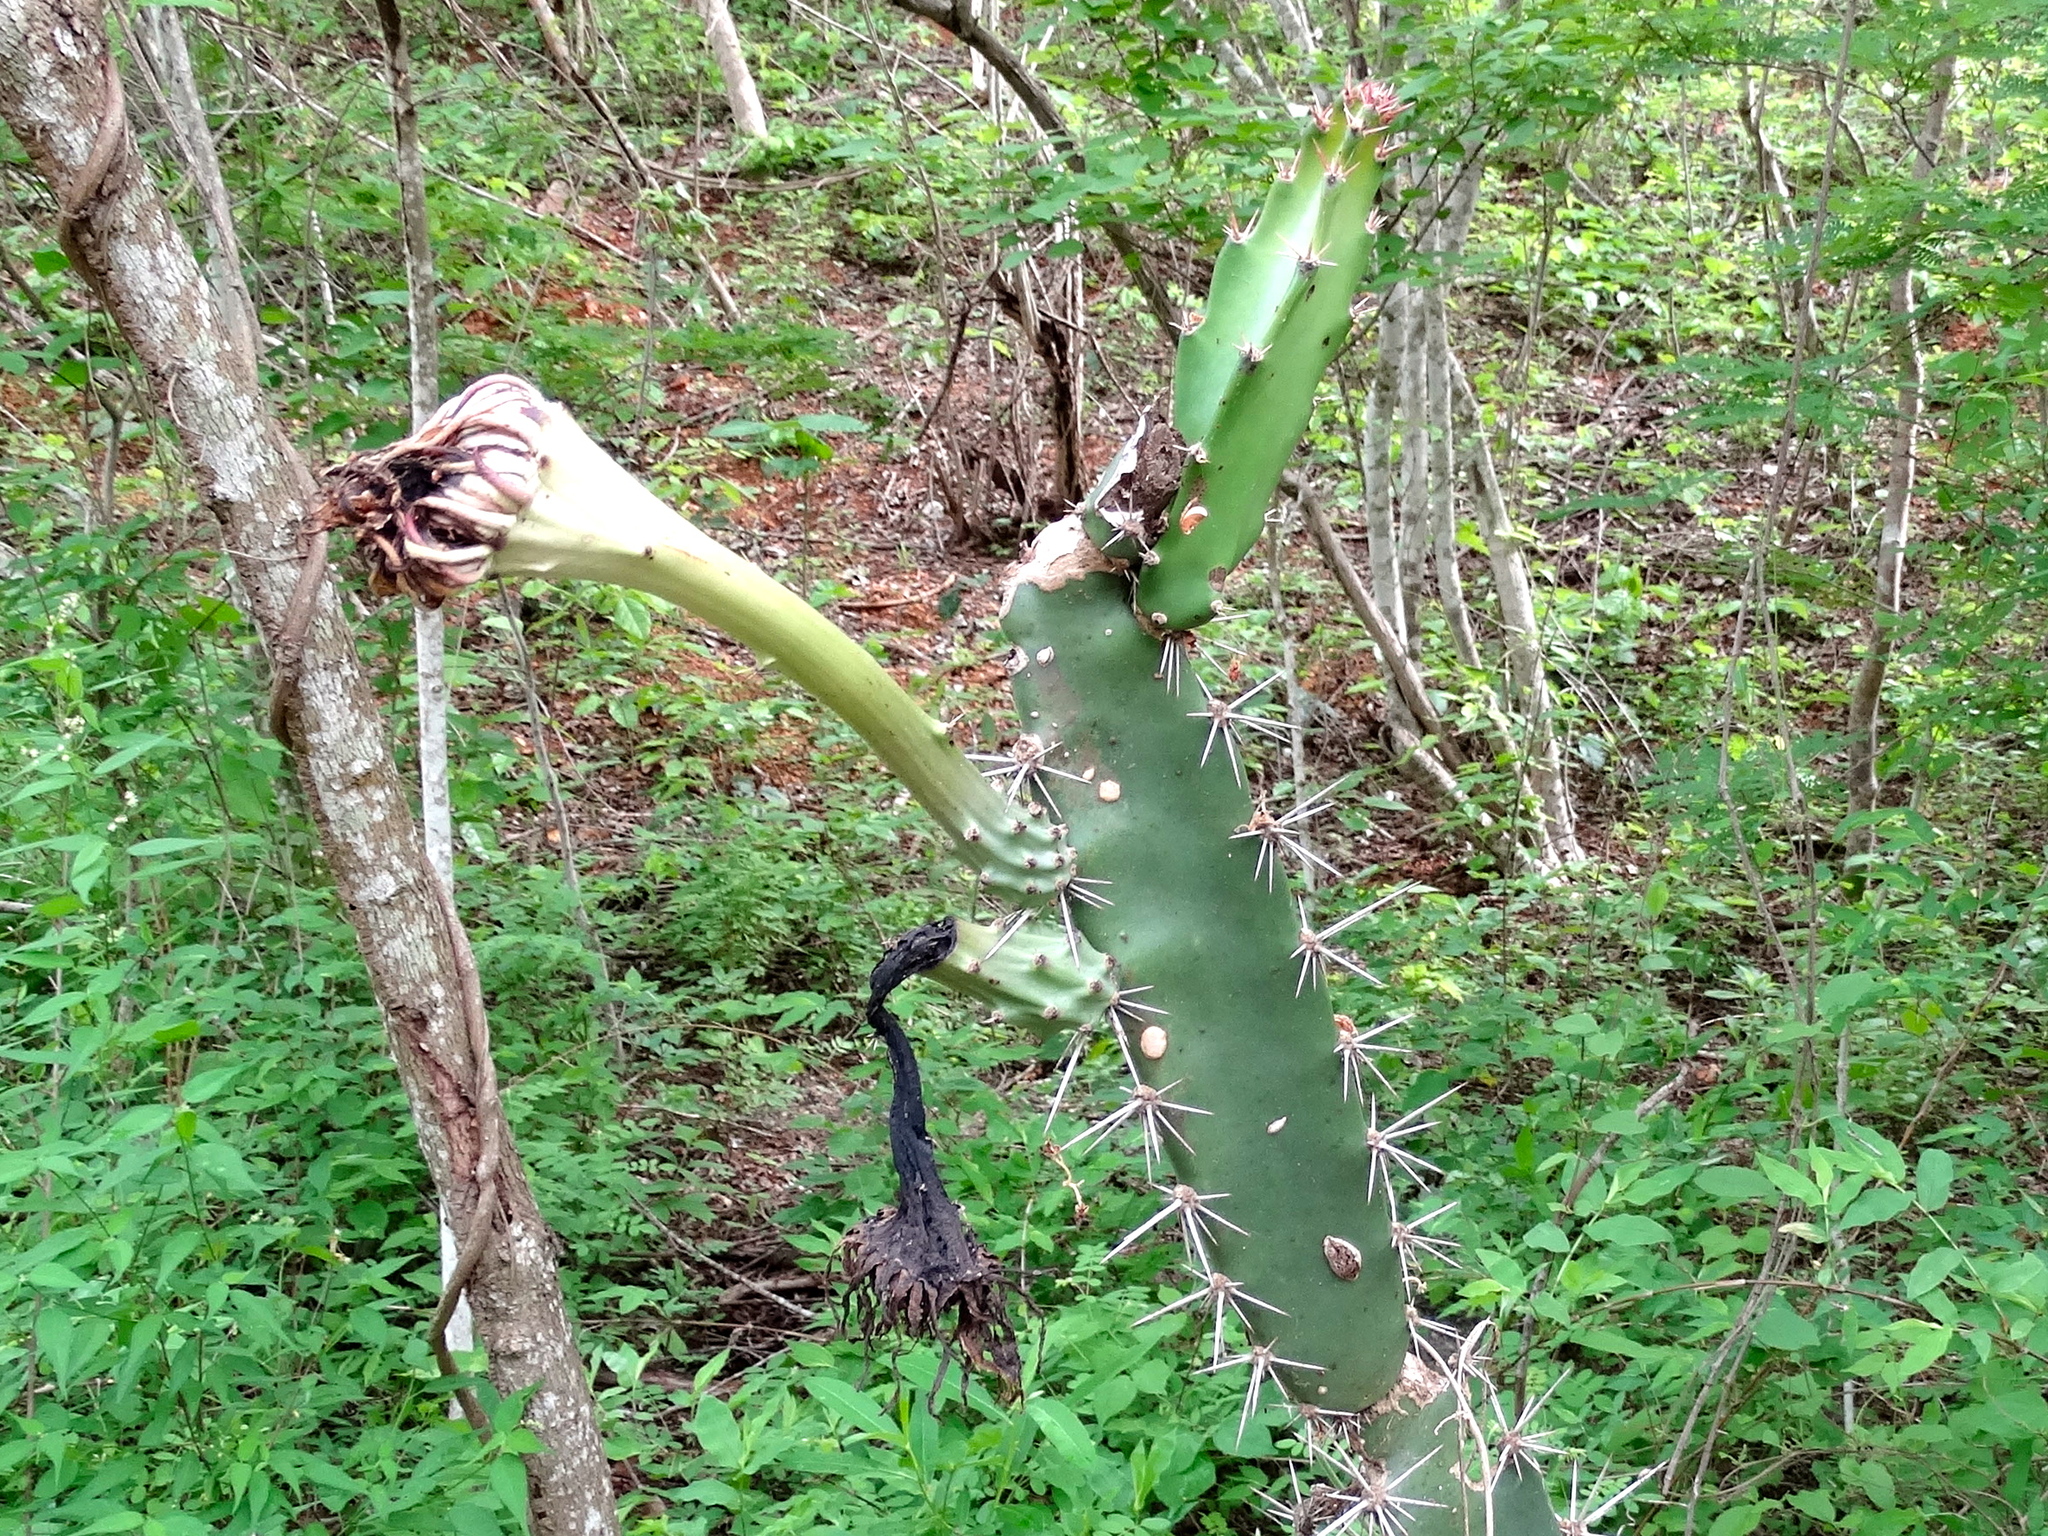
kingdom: Plantae
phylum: Tracheophyta
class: Magnoliopsida
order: Caryophyllales
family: Cactaceae
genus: Acanthocereus
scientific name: Acanthocereus tetragonus
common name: Triangle cactus
